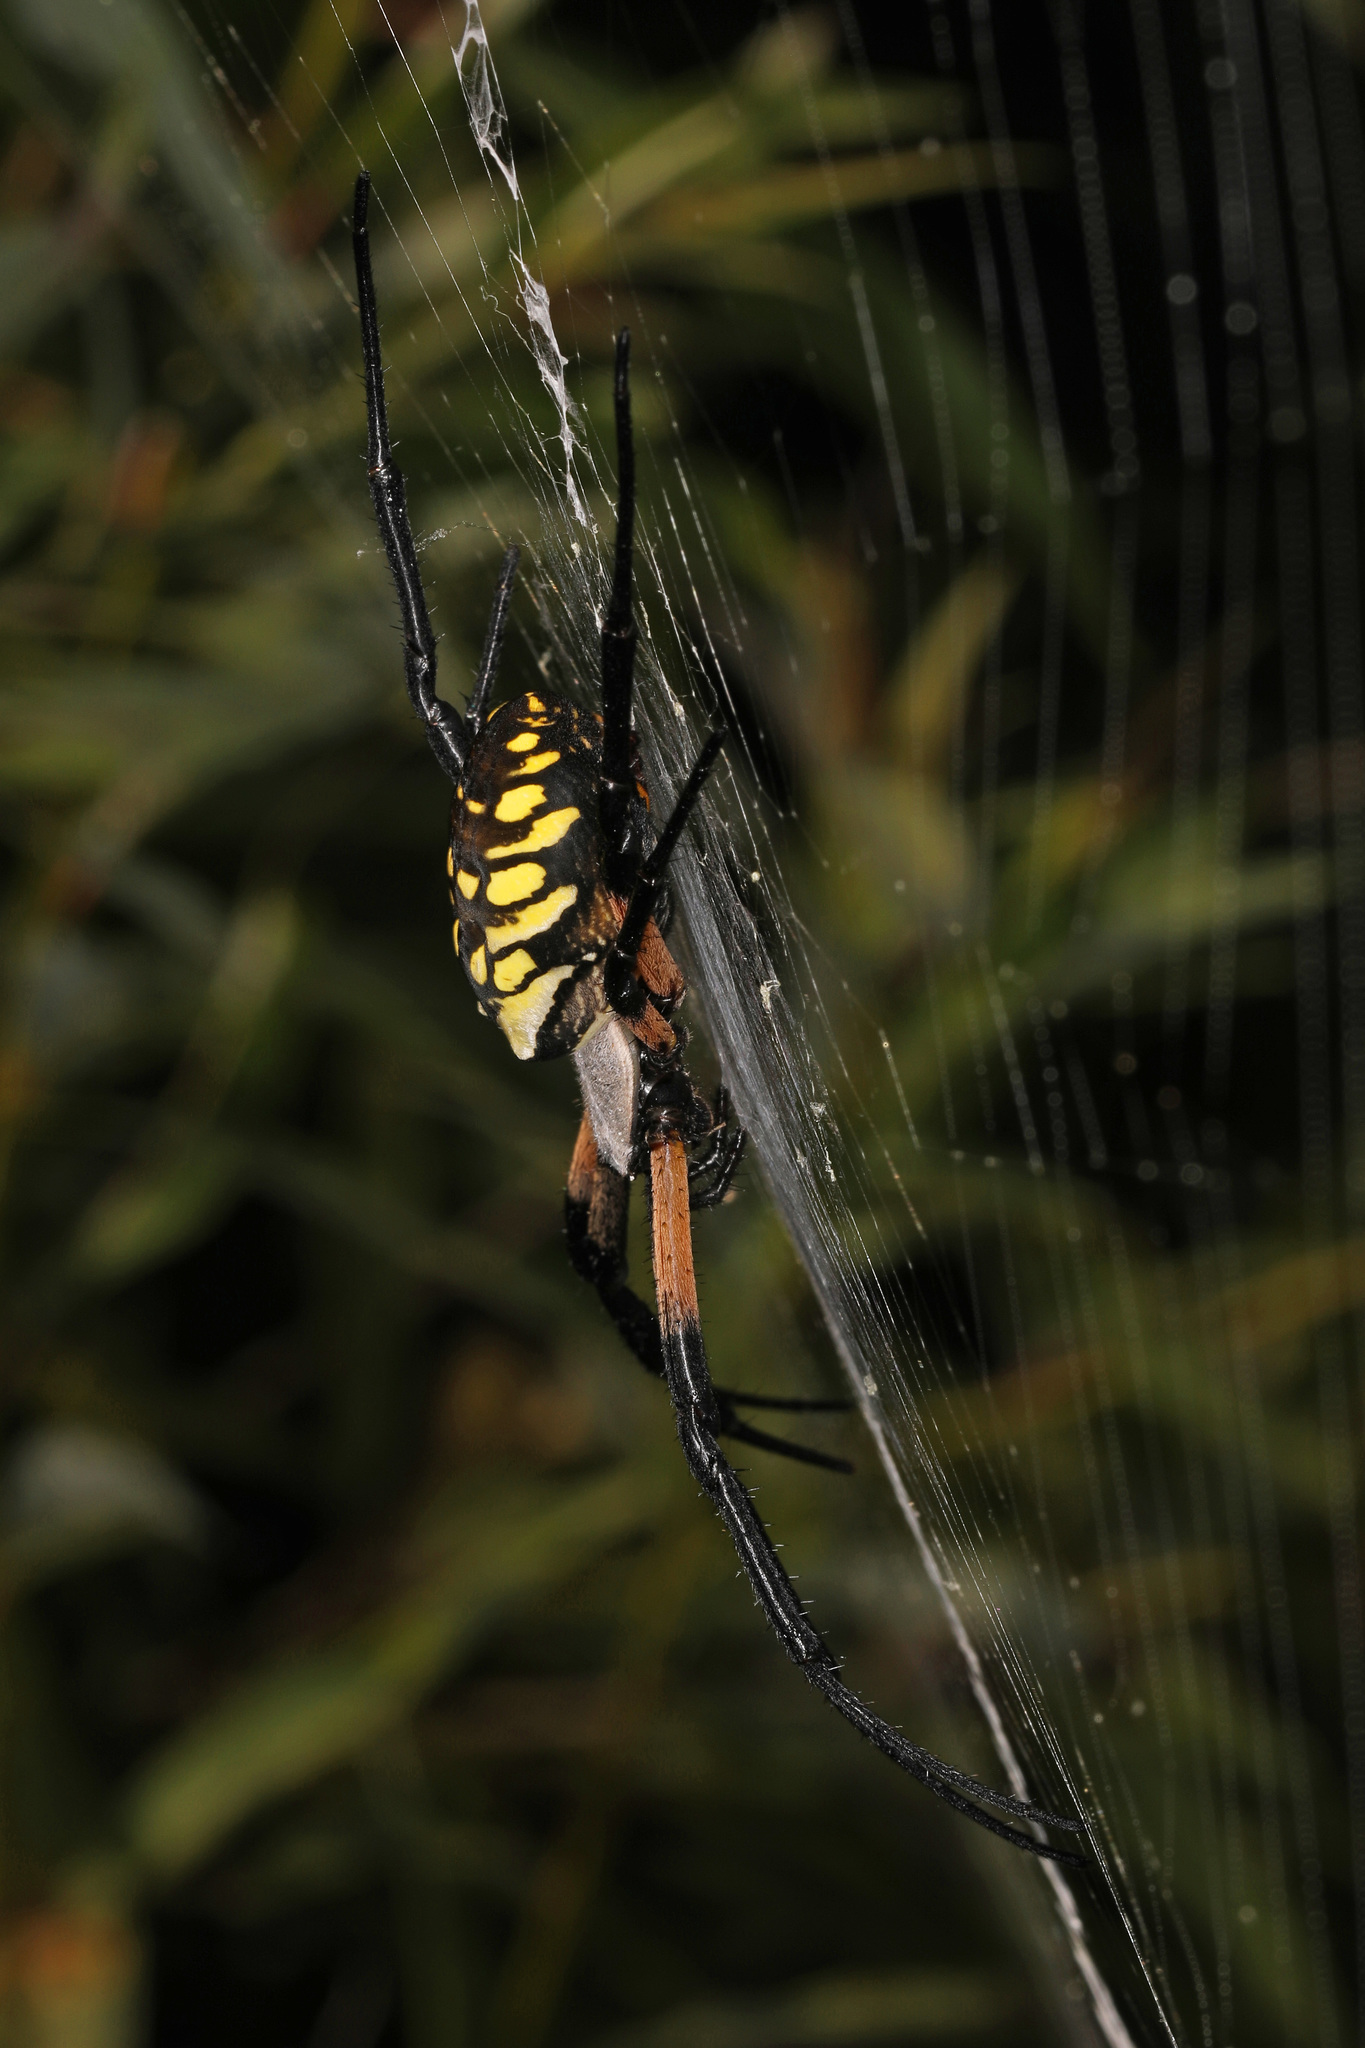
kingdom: Animalia
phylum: Arthropoda
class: Arachnida
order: Araneae
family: Araneidae
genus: Argiope
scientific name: Argiope aurantia
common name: Orb weavers
